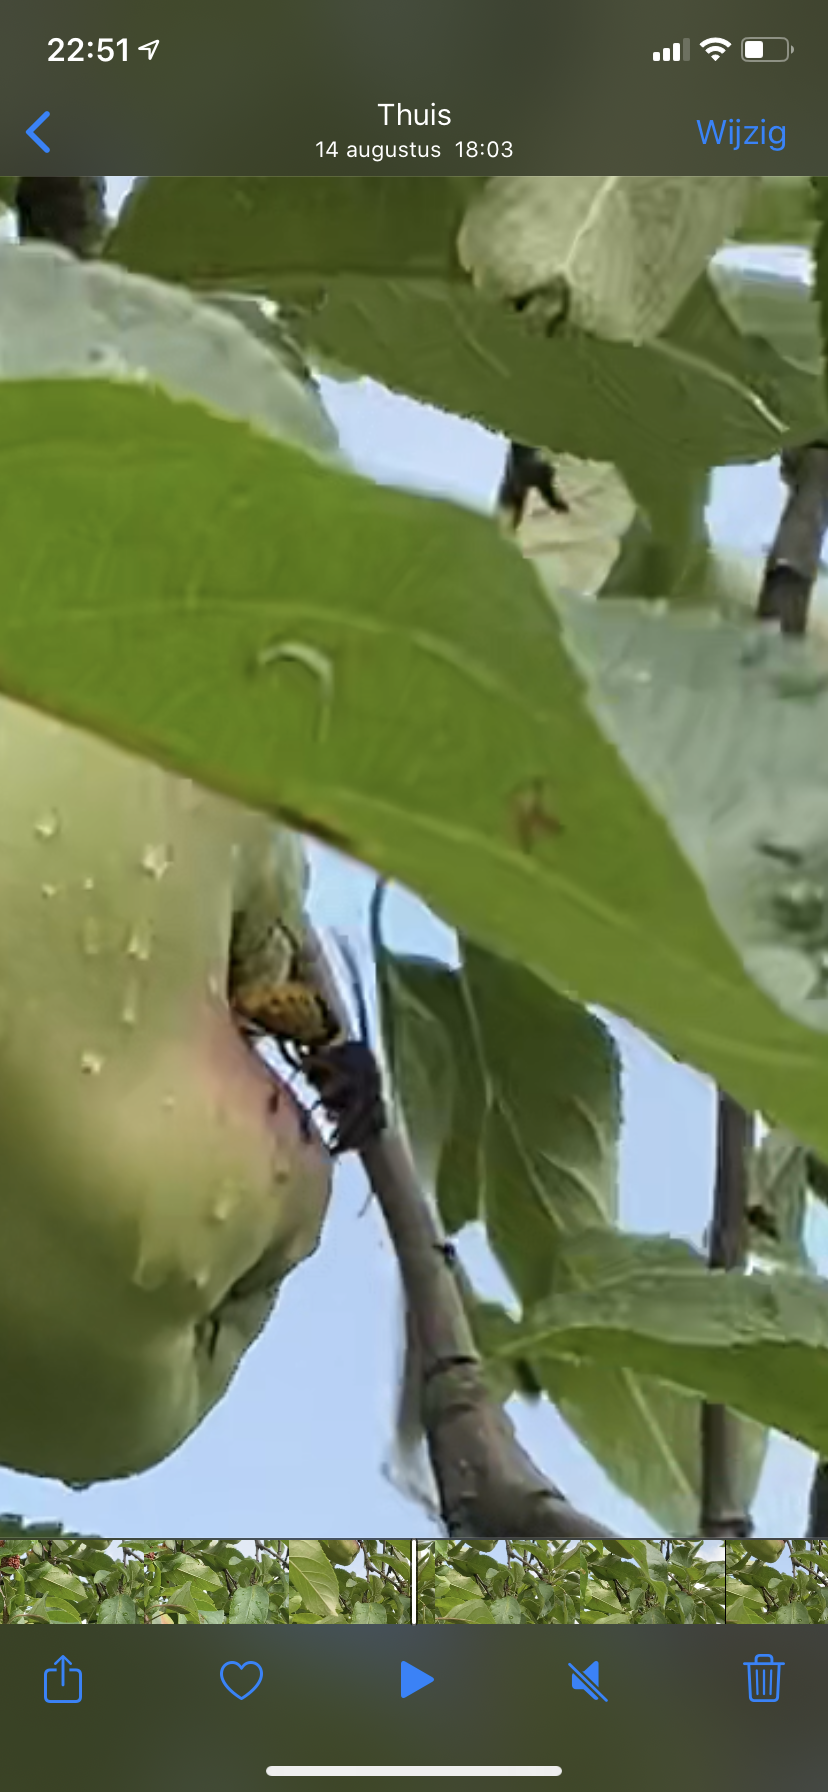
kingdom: Animalia
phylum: Arthropoda
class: Insecta
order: Hymenoptera
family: Vespidae
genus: Vespa
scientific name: Vespa crabro
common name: Hornet
